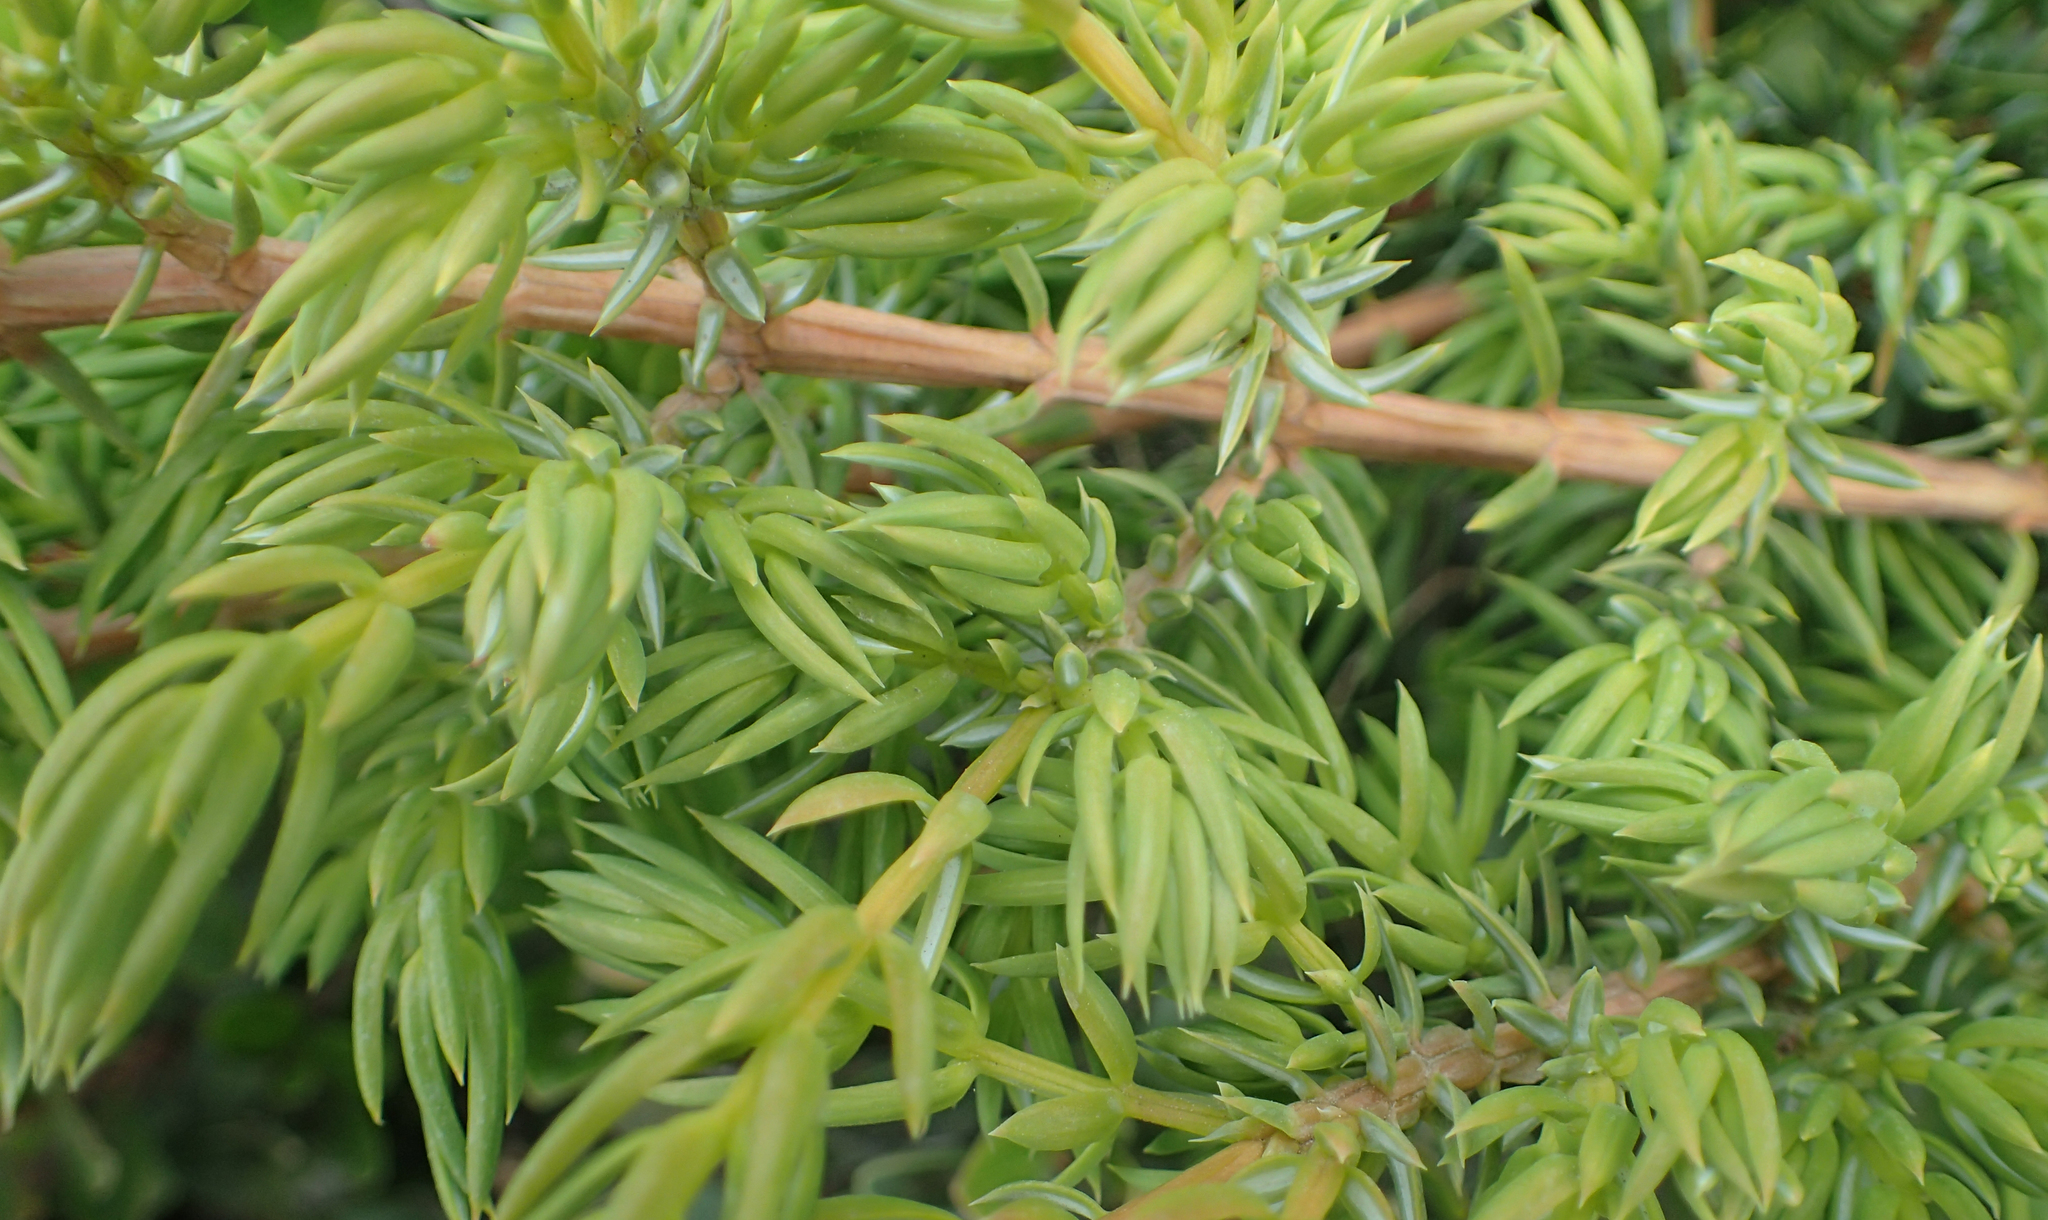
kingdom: Plantae
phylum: Tracheophyta
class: Pinopsida
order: Pinales
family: Cupressaceae
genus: Juniperus
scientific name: Juniperus communis
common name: Common juniper
